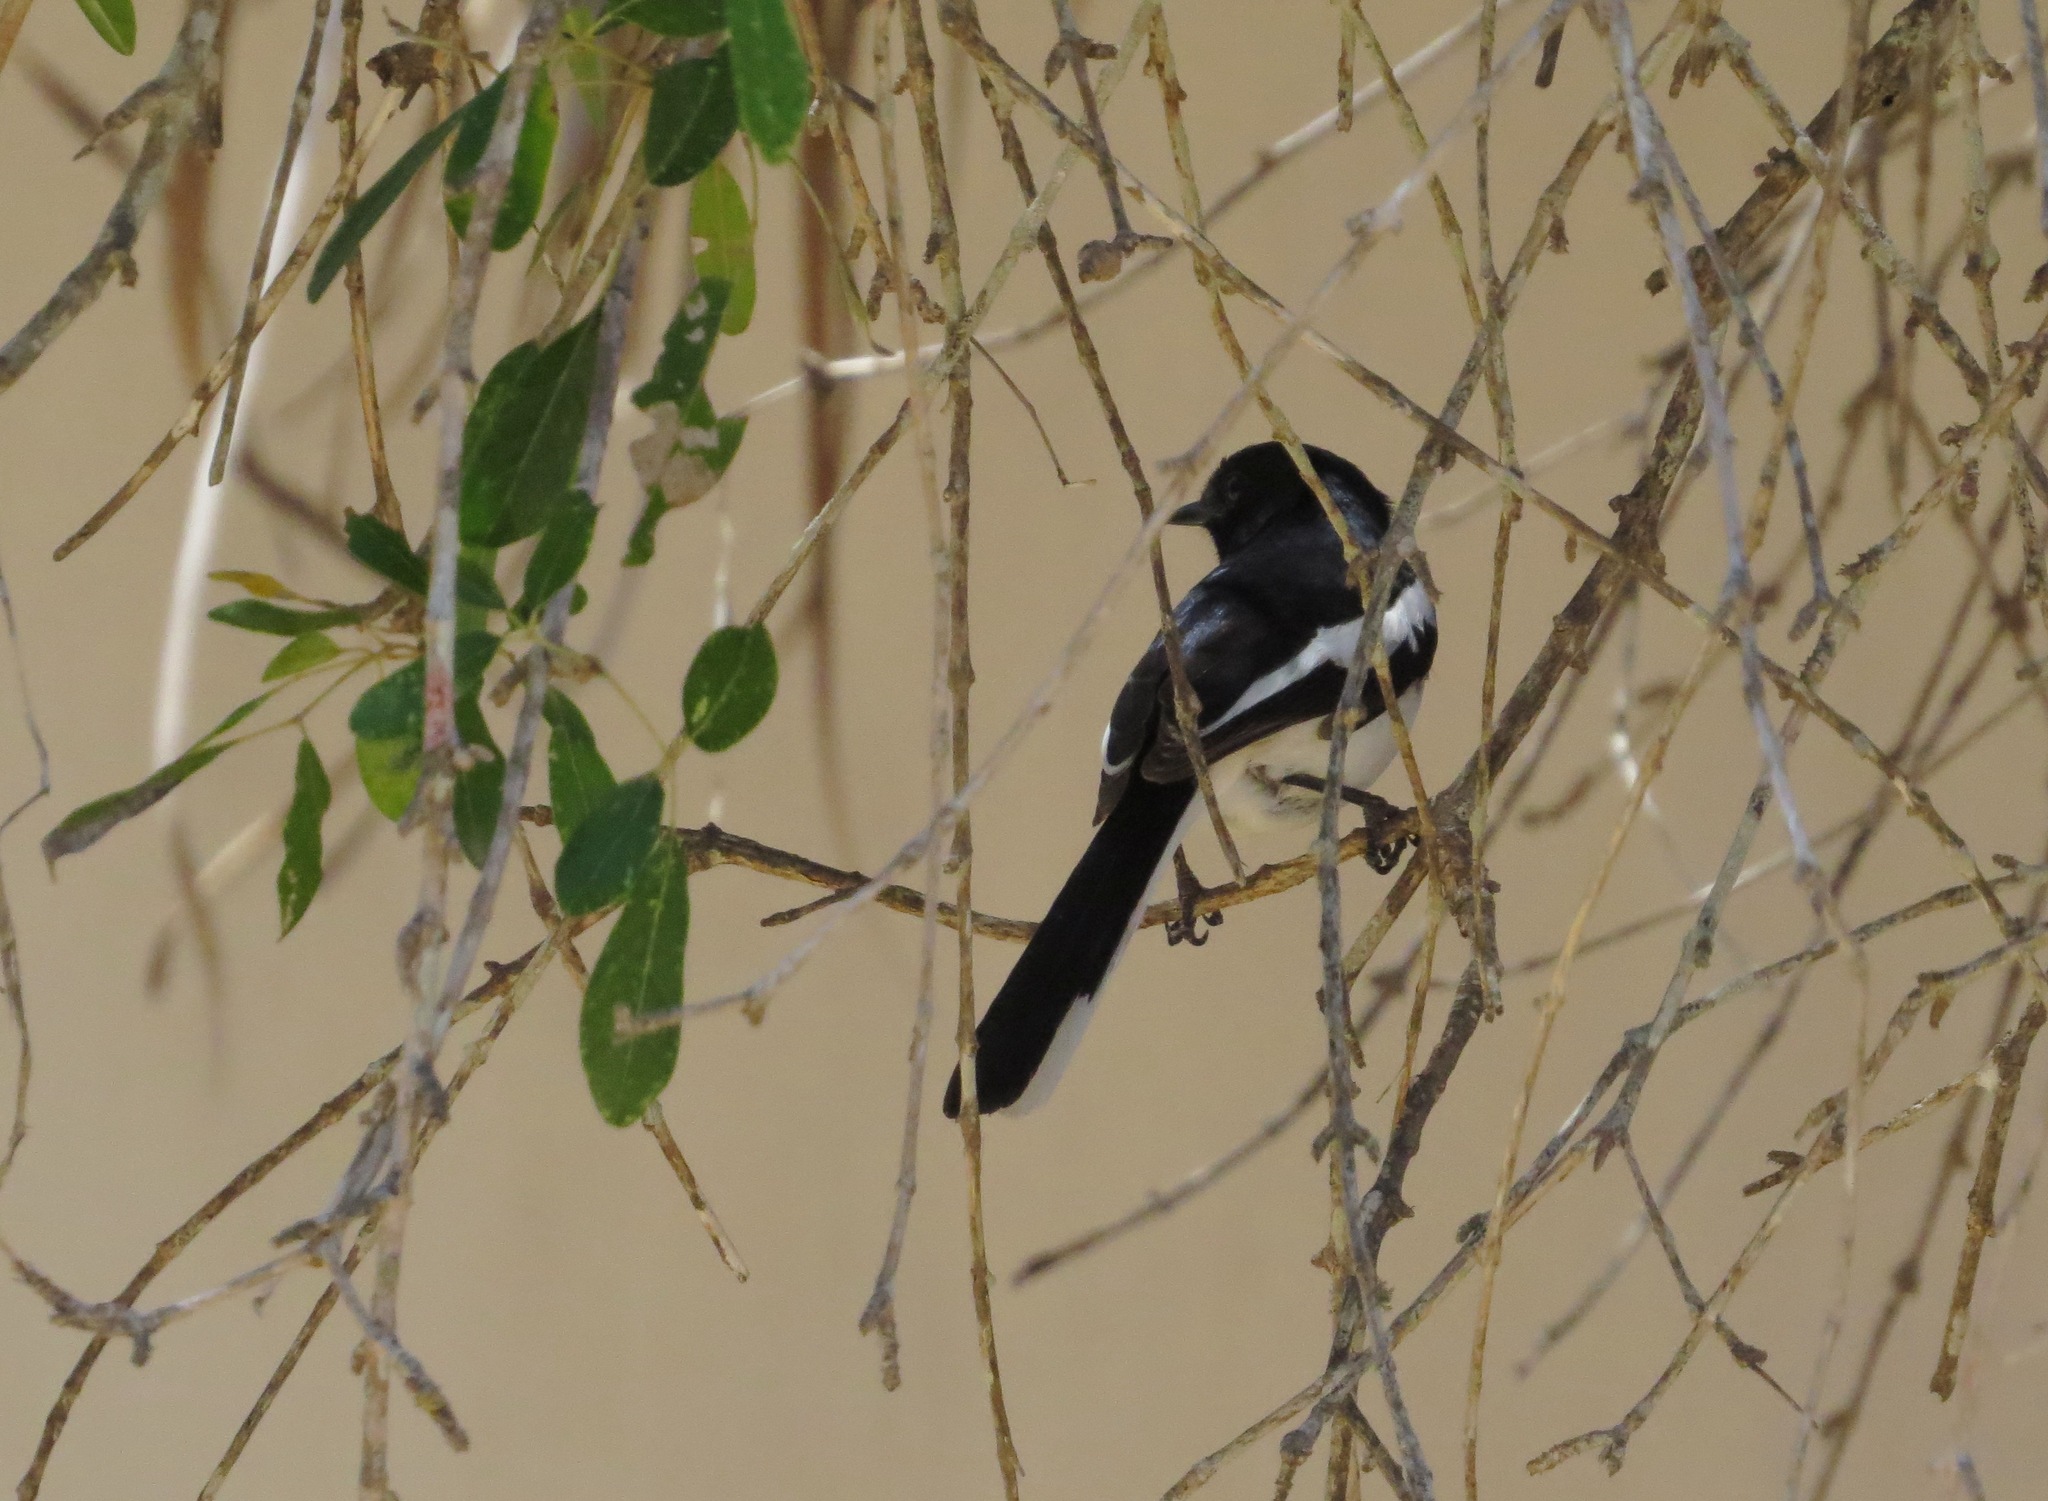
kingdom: Animalia
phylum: Chordata
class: Aves
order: Passeriformes
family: Muscicapidae
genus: Copsychus
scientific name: Copsychus albospecularis
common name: Madagascar magpie-robin
